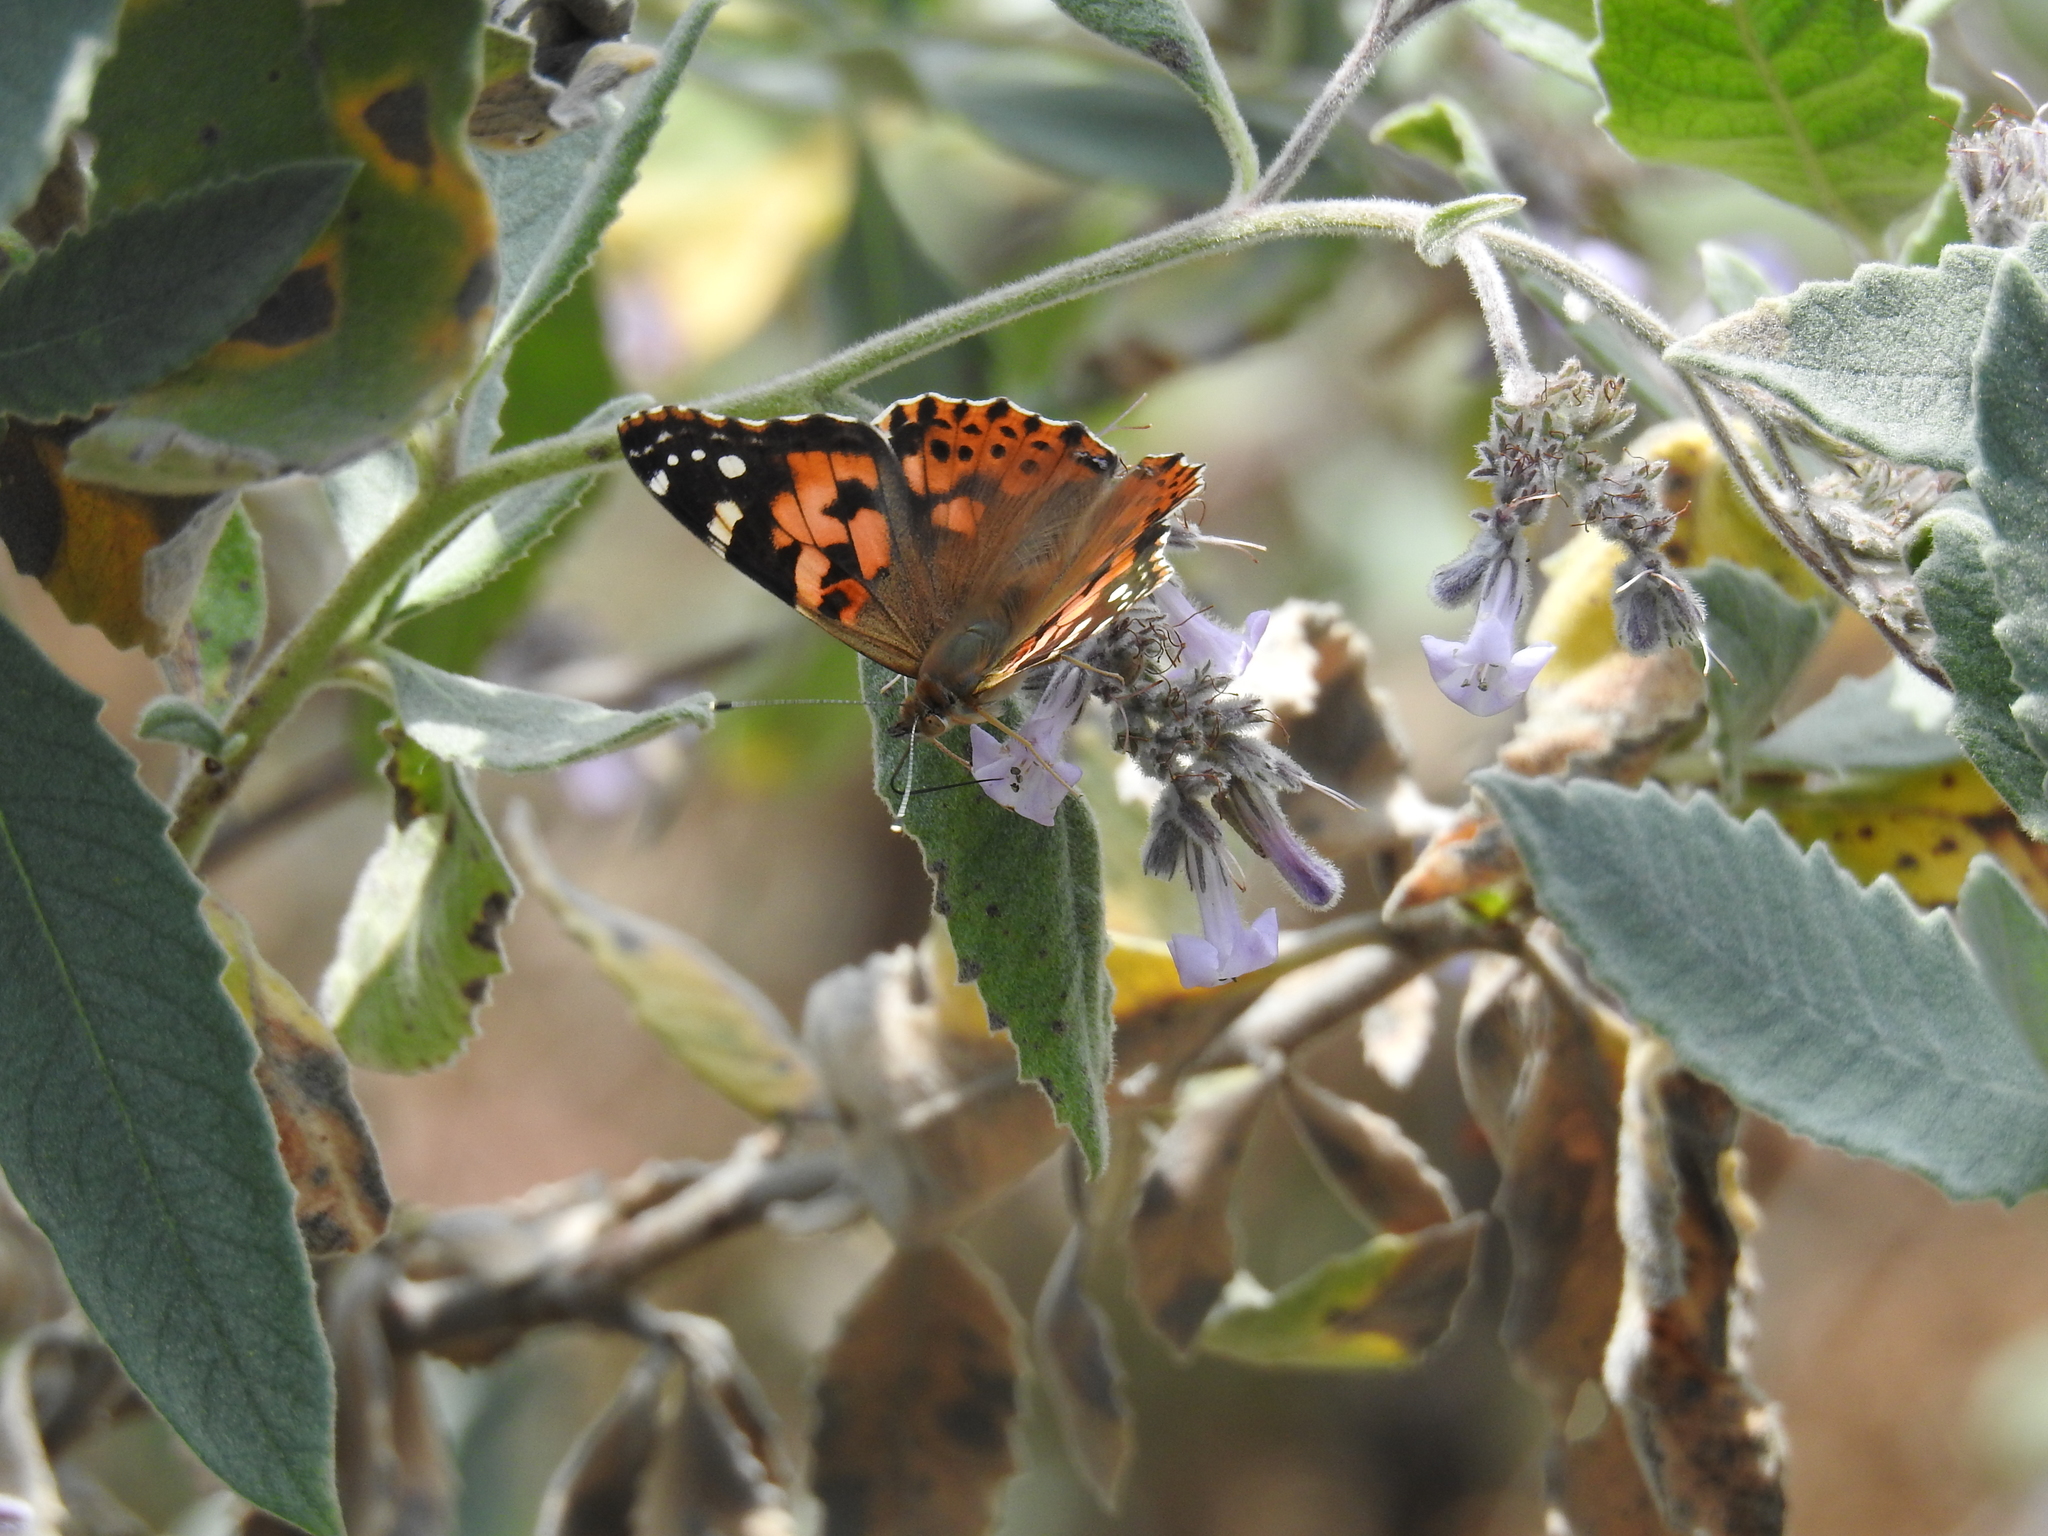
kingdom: Animalia
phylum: Arthropoda
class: Insecta
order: Lepidoptera
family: Nymphalidae
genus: Vanessa
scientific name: Vanessa cardui
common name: Painted lady
